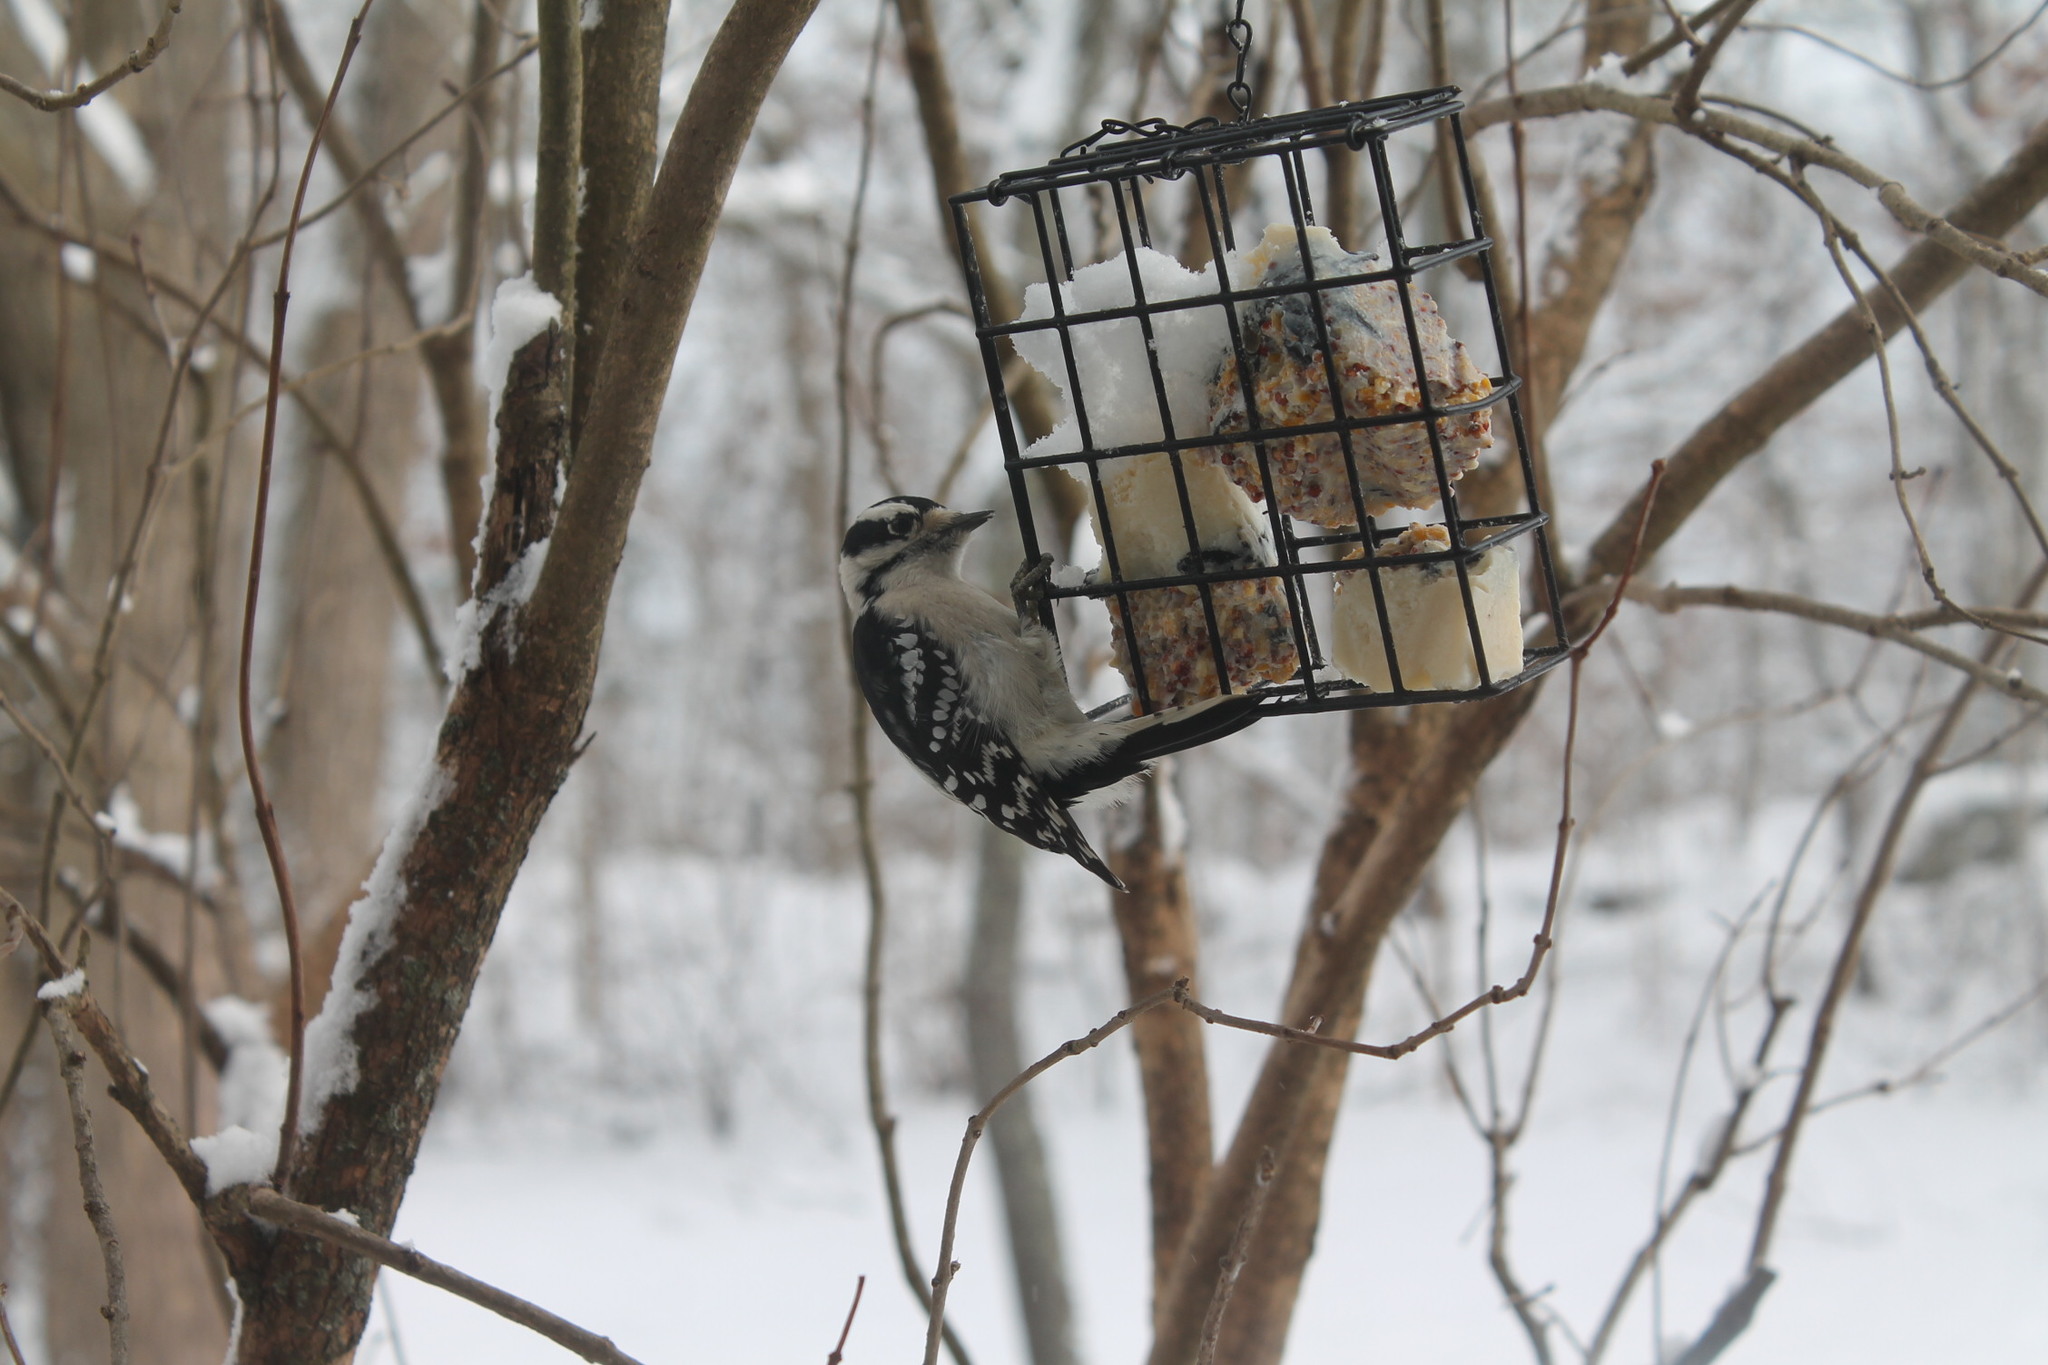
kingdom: Animalia
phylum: Chordata
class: Aves
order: Piciformes
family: Picidae
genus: Dryobates
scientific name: Dryobates pubescens
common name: Downy woodpecker
